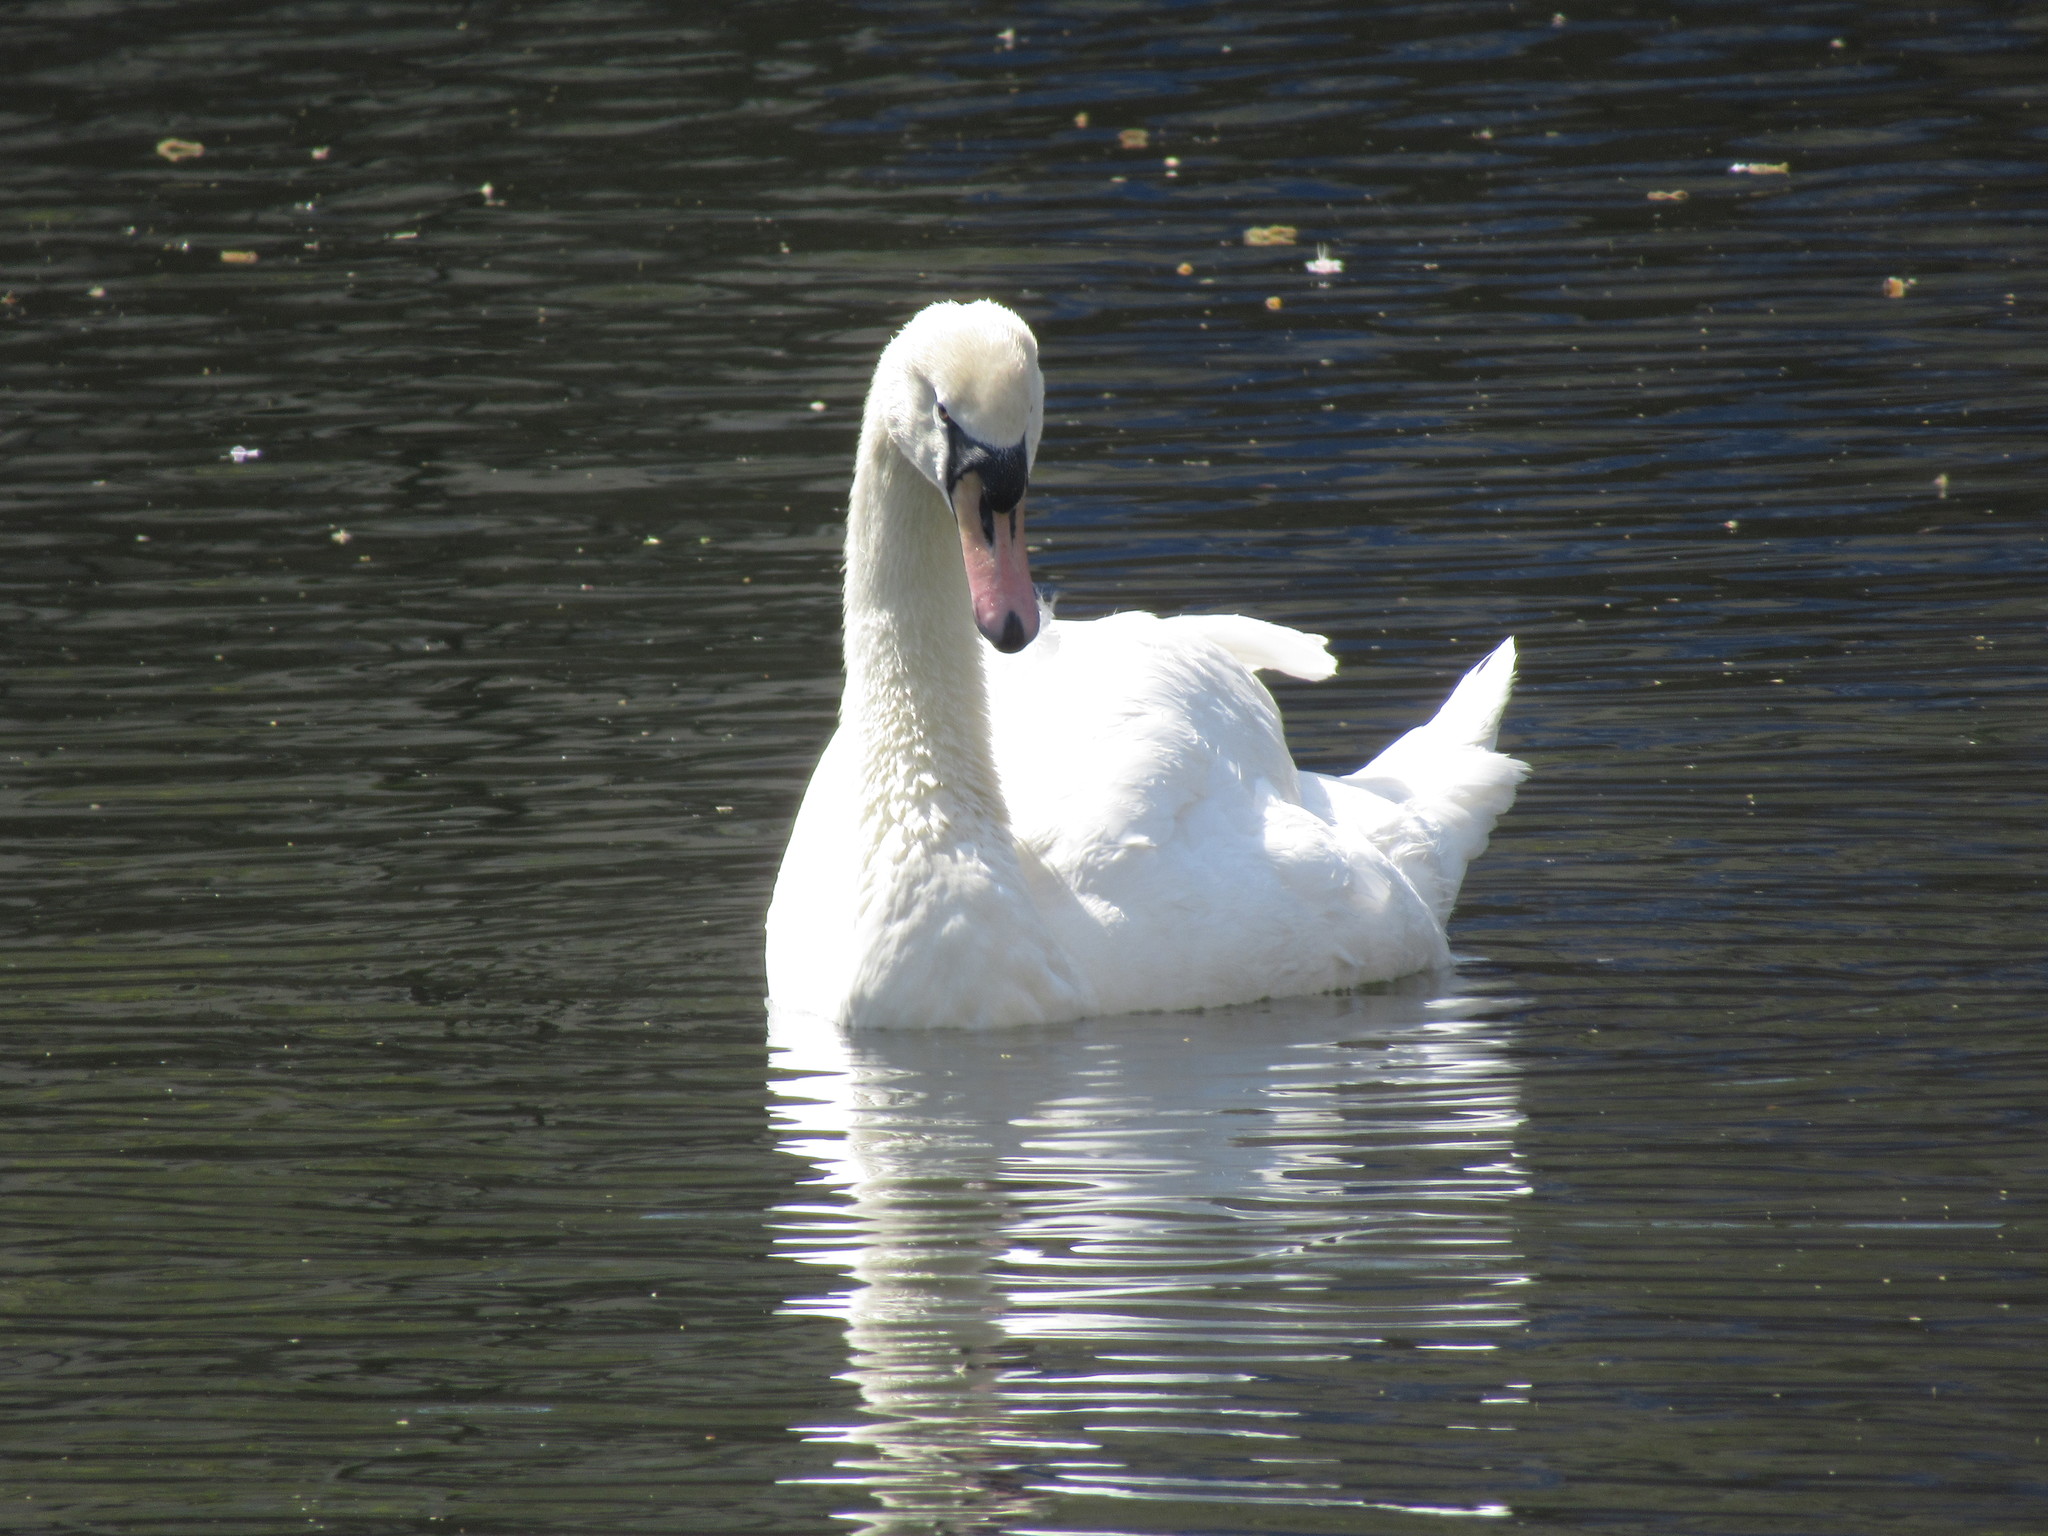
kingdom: Animalia
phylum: Chordata
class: Aves
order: Anseriformes
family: Anatidae
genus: Cygnus
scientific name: Cygnus olor
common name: Mute swan
